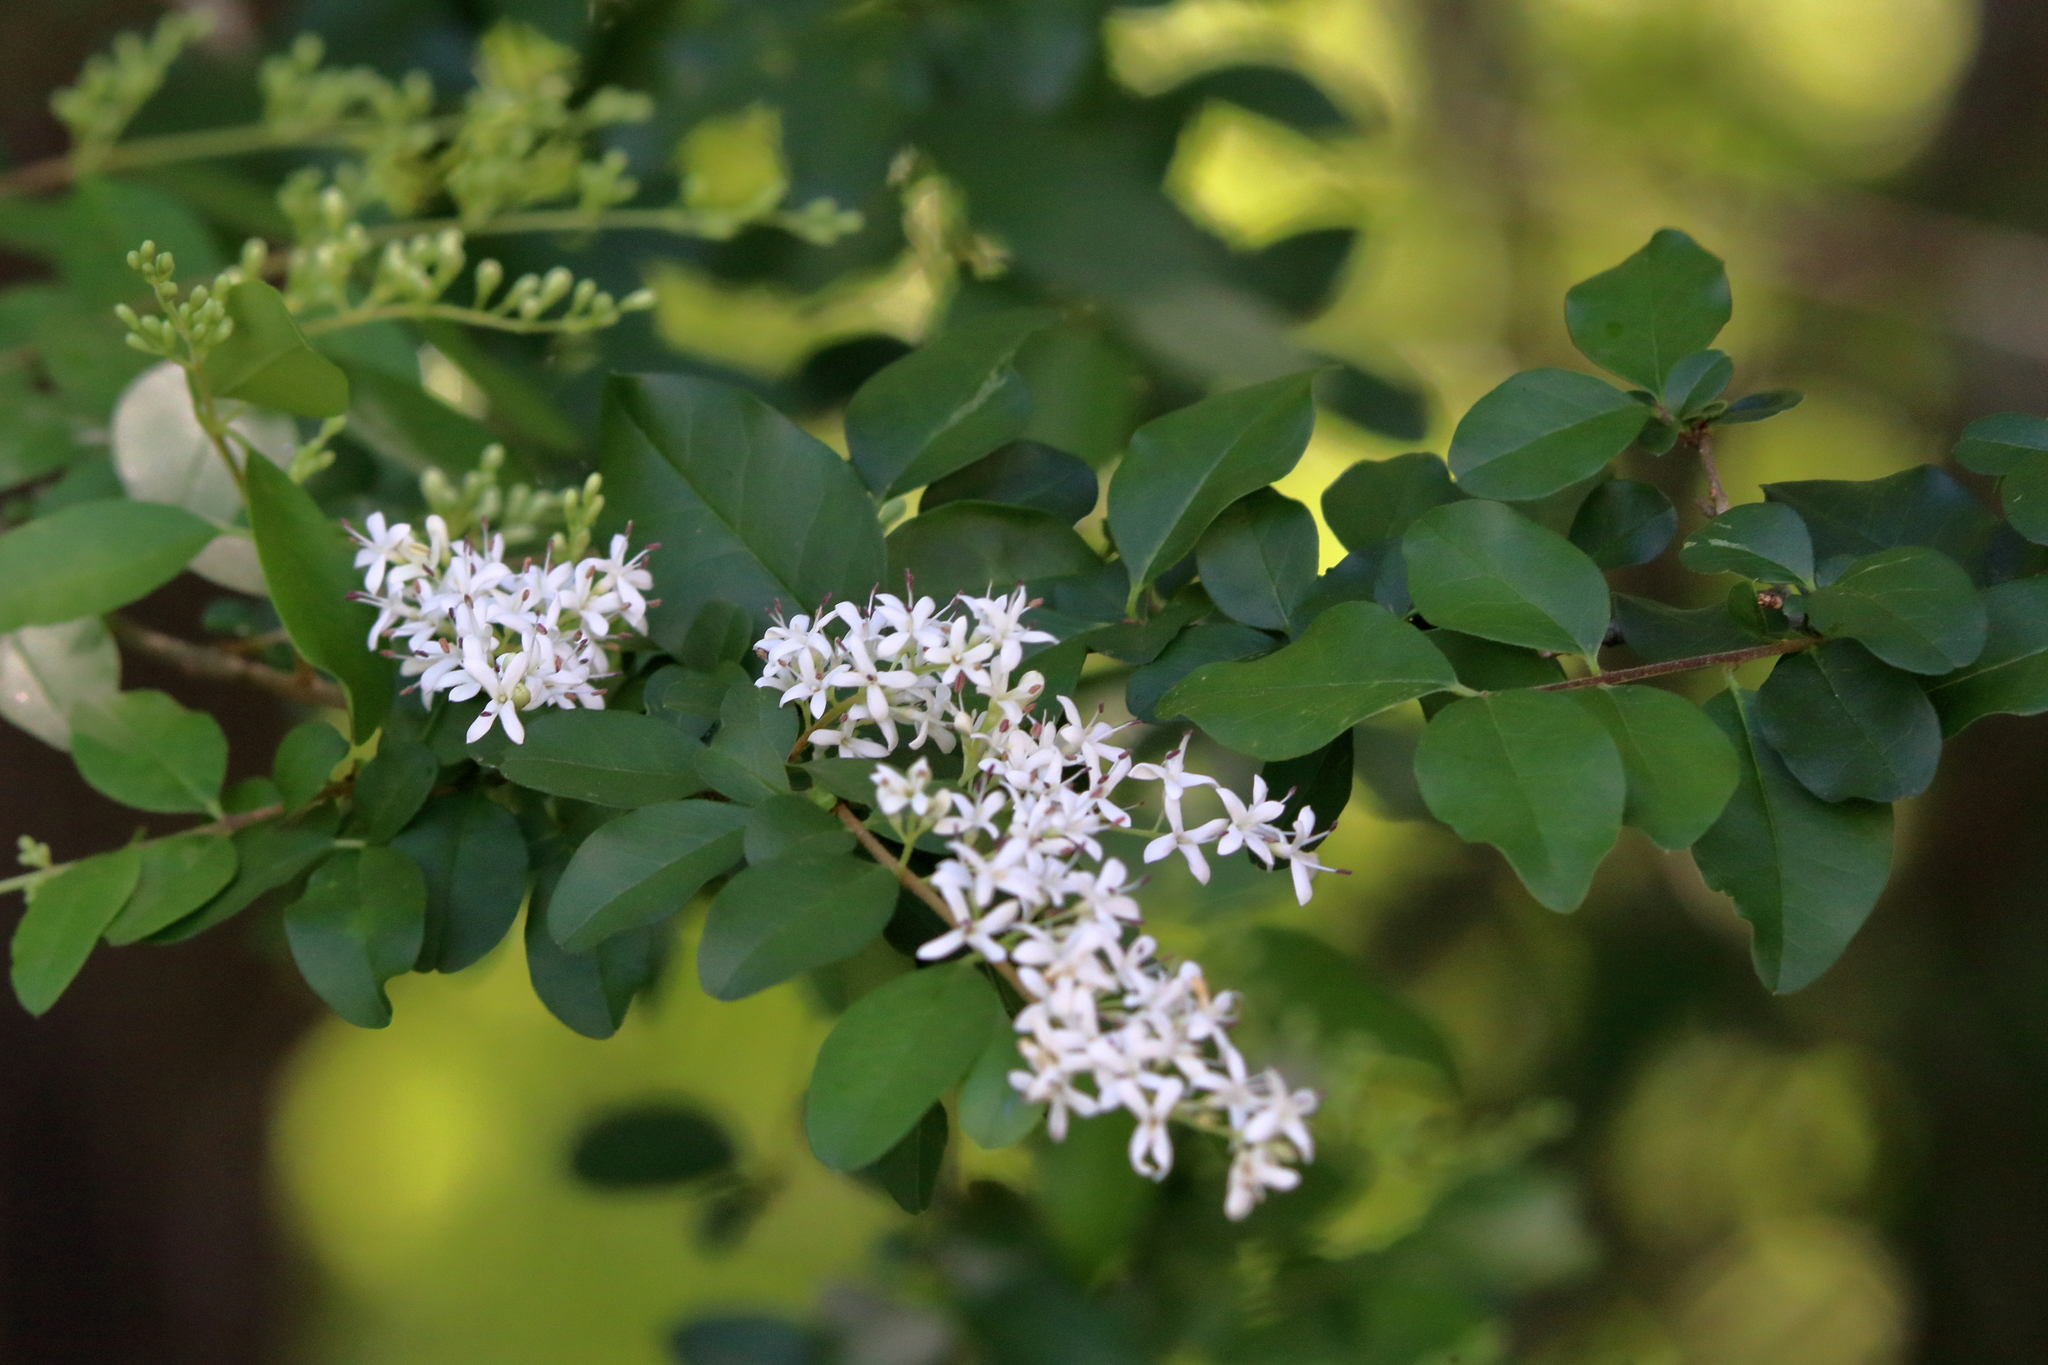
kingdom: Plantae
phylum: Tracheophyta
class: Magnoliopsida
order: Lamiales
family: Oleaceae
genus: Ligustrum
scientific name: Ligustrum sinense
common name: Chinese privet
